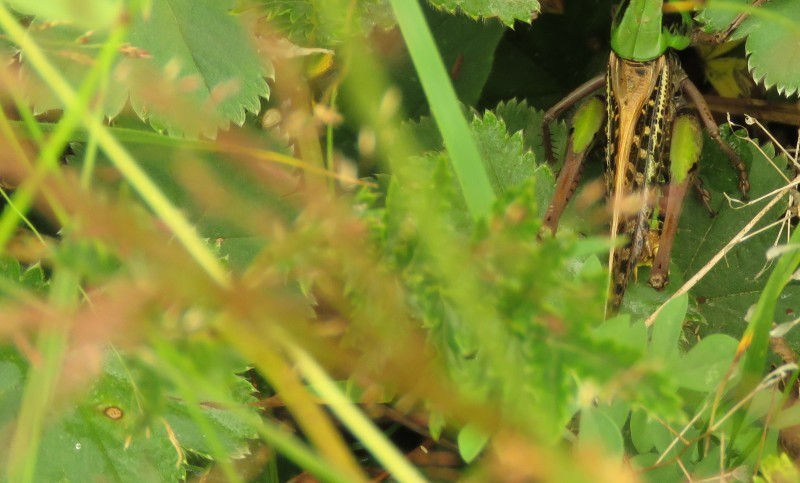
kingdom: Animalia
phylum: Arthropoda
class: Insecta
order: Orthoptera
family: Tettigoniidae
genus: Decticus
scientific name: Decticus verrucivorus
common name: Wart-biter
